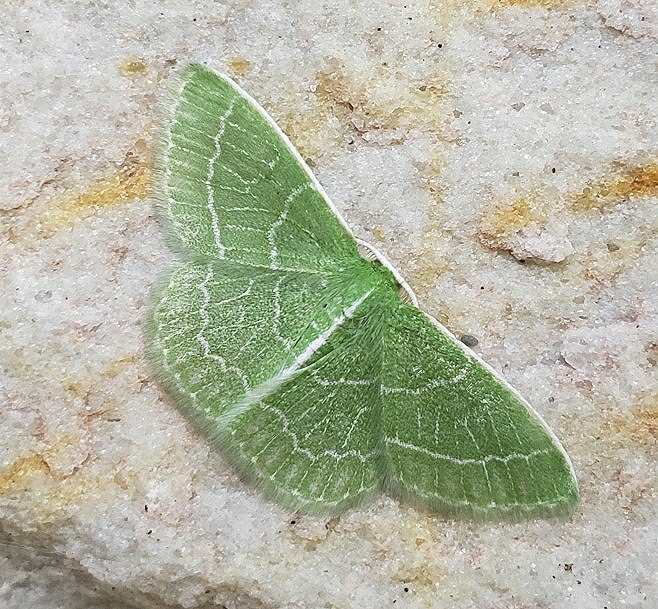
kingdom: Animalia
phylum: Arthropoda
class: Insecta
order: Lepidoptera
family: Geometridae
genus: Synchlora
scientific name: Synchlora aerata
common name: Wavy-lined emerald
